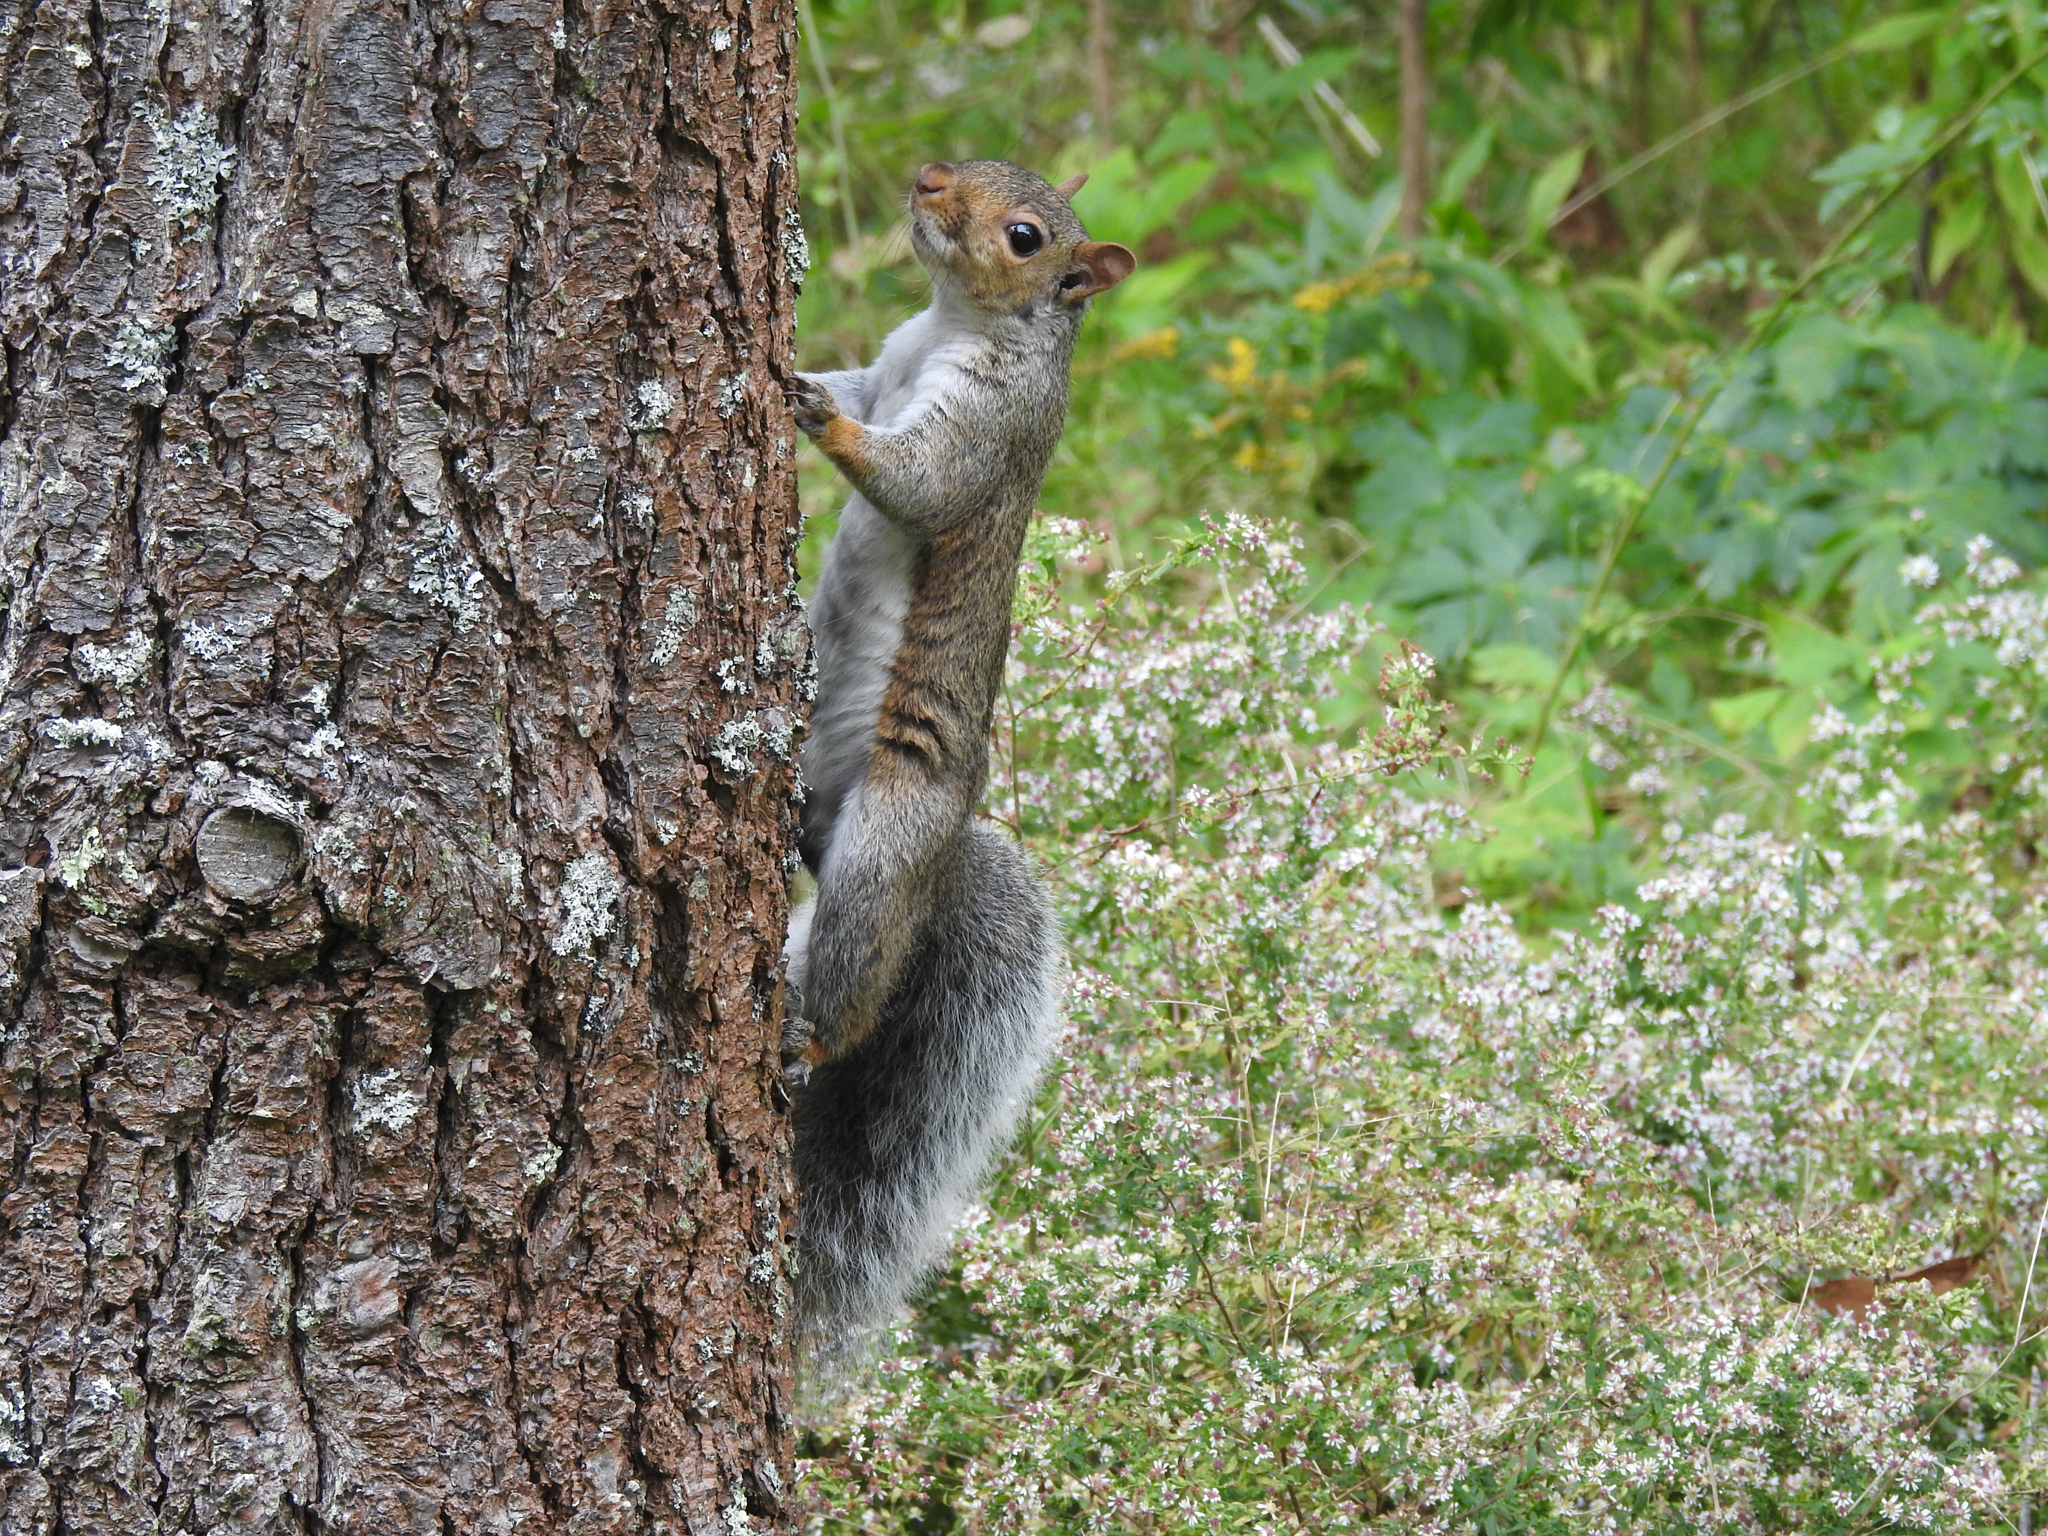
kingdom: Animalia
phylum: Chordata
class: Mammalia
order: Rodentia
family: Sciuridae
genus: Sciurus
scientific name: Sciurus carolinensis
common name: Eastern gray squirrel
